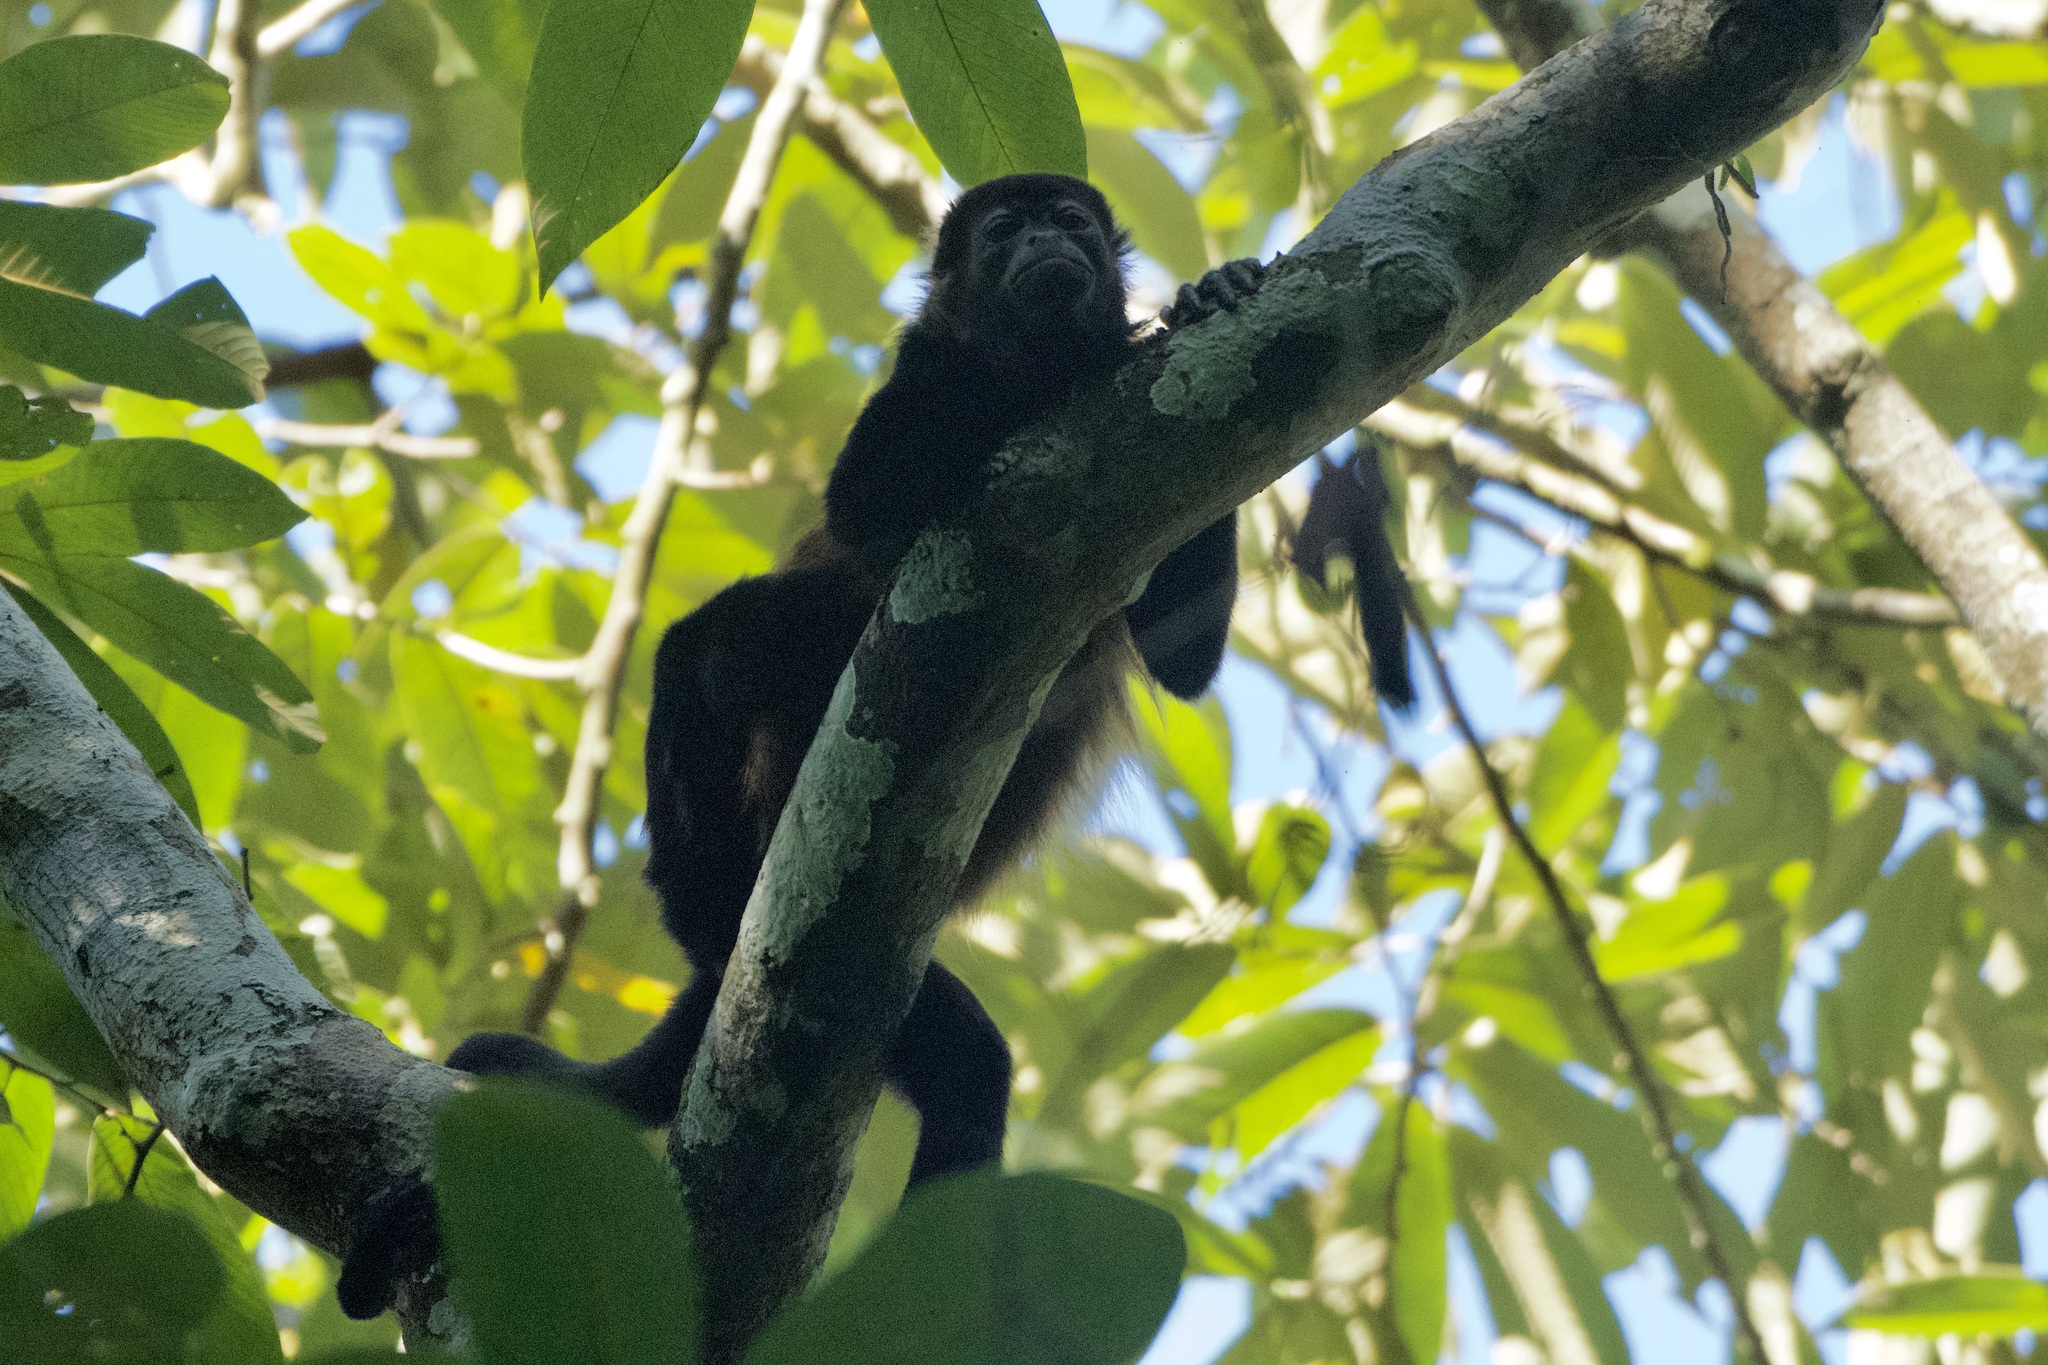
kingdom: Animalia
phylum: Chordata
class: Mammalia
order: Primates
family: Atelidae
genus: Alouatta
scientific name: Alouatta palliata
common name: Mantled howler
